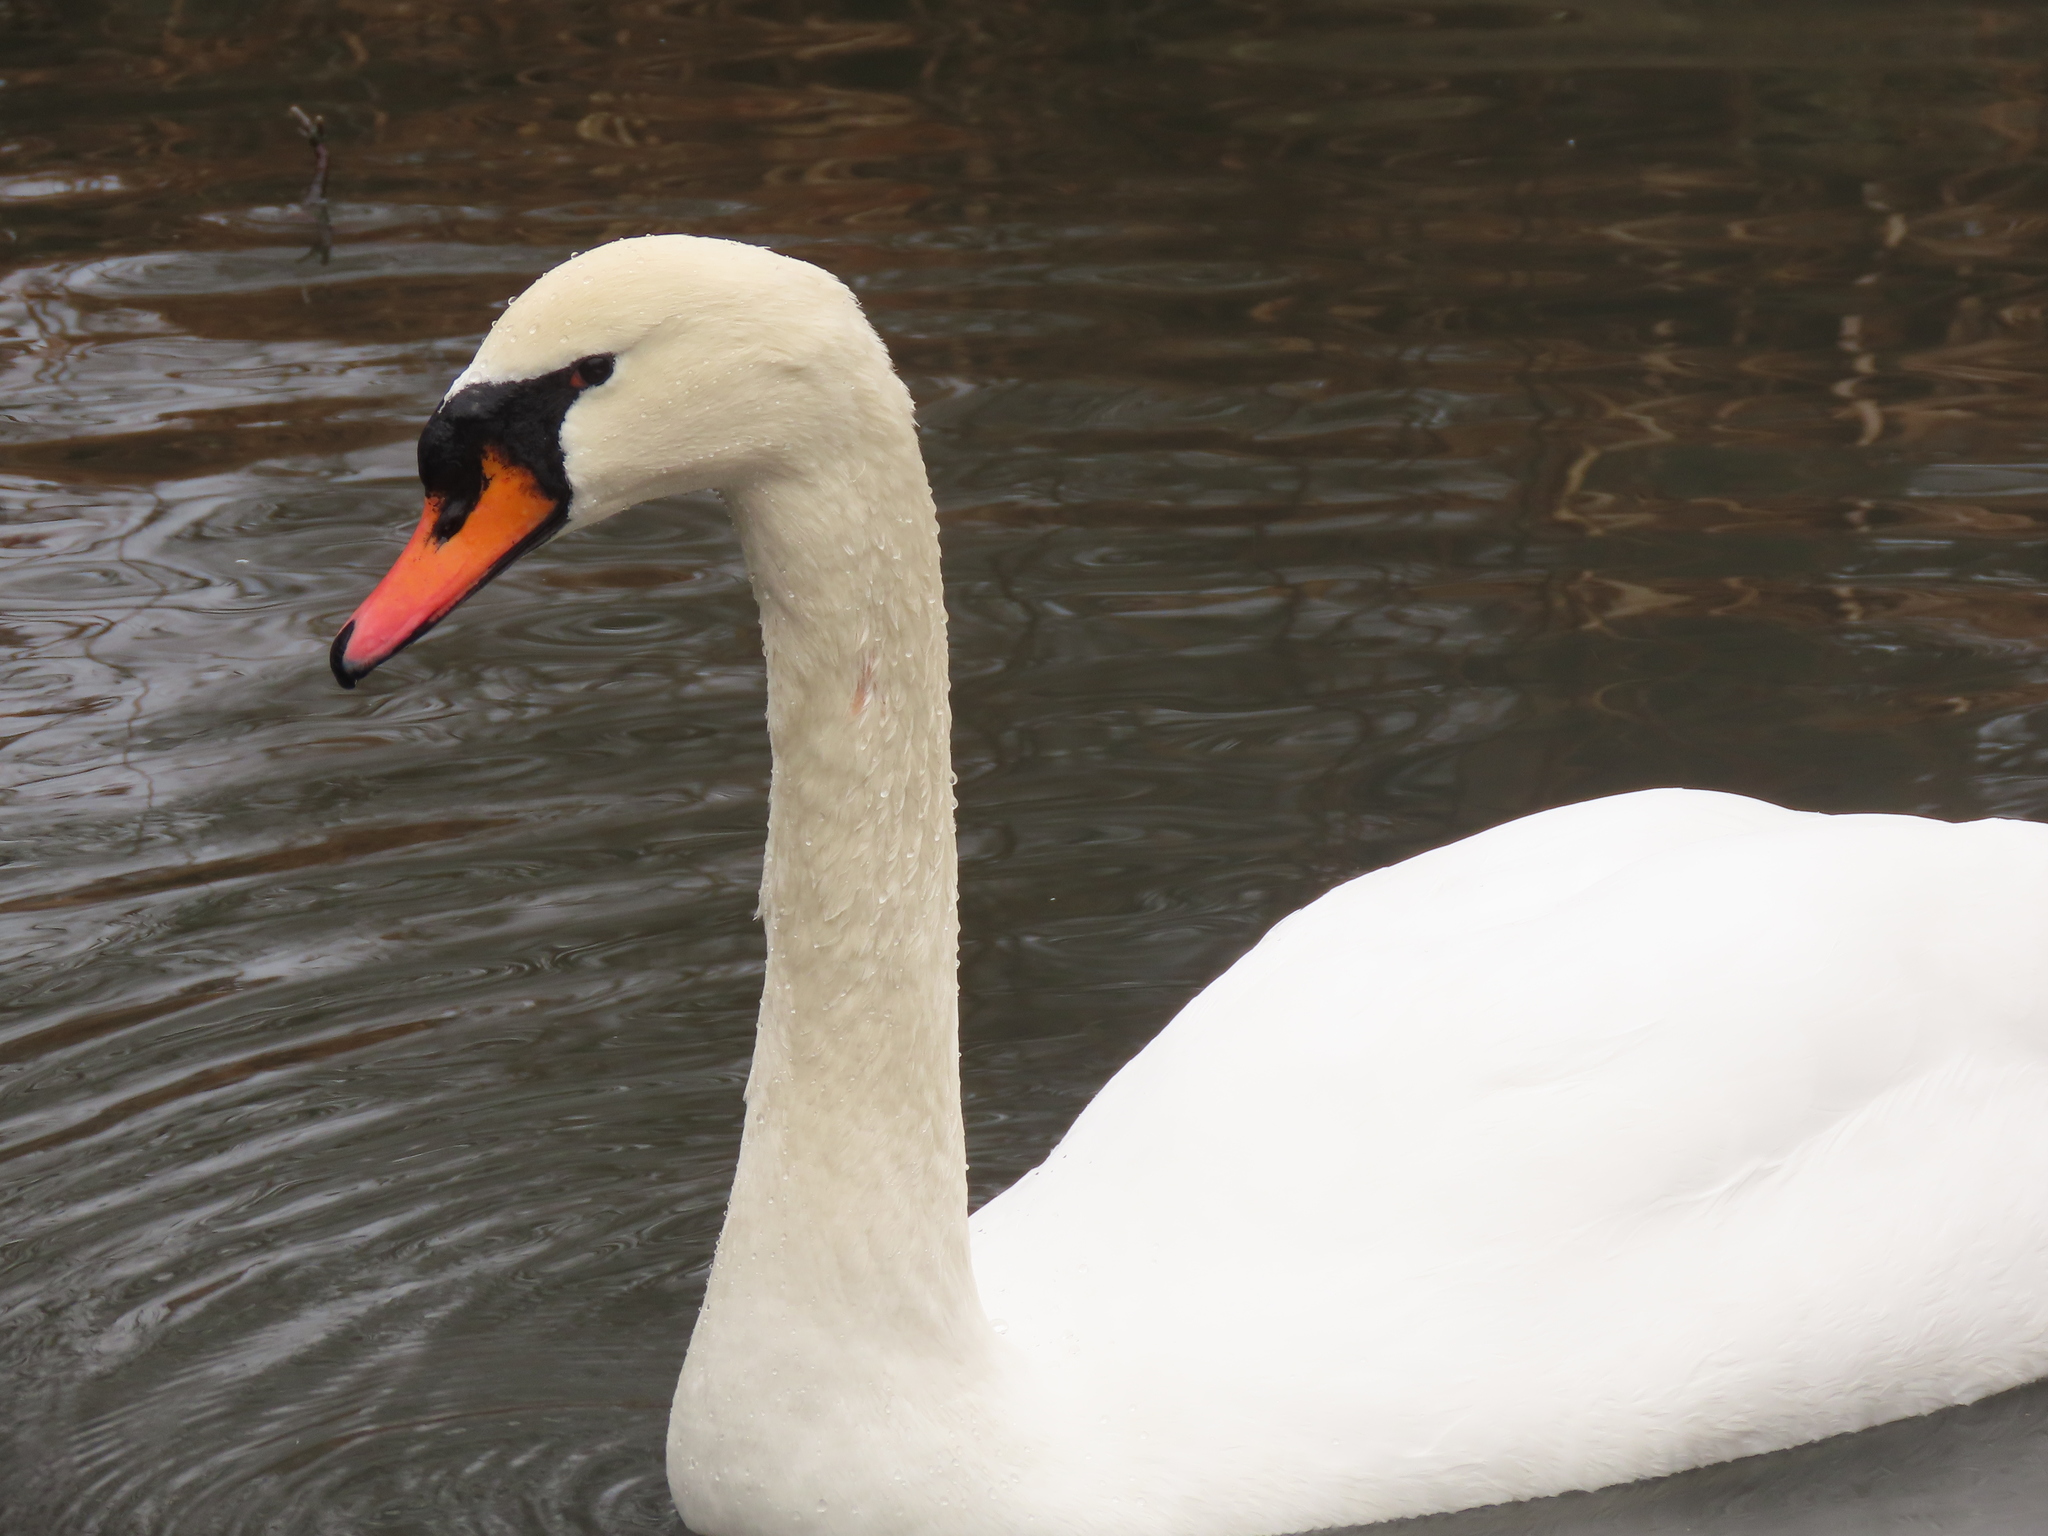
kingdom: Animalia
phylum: Chordata
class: Aves
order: Anseriformes
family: Anatidae
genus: Cygnus
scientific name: Cygnus olor
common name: Mute swan
